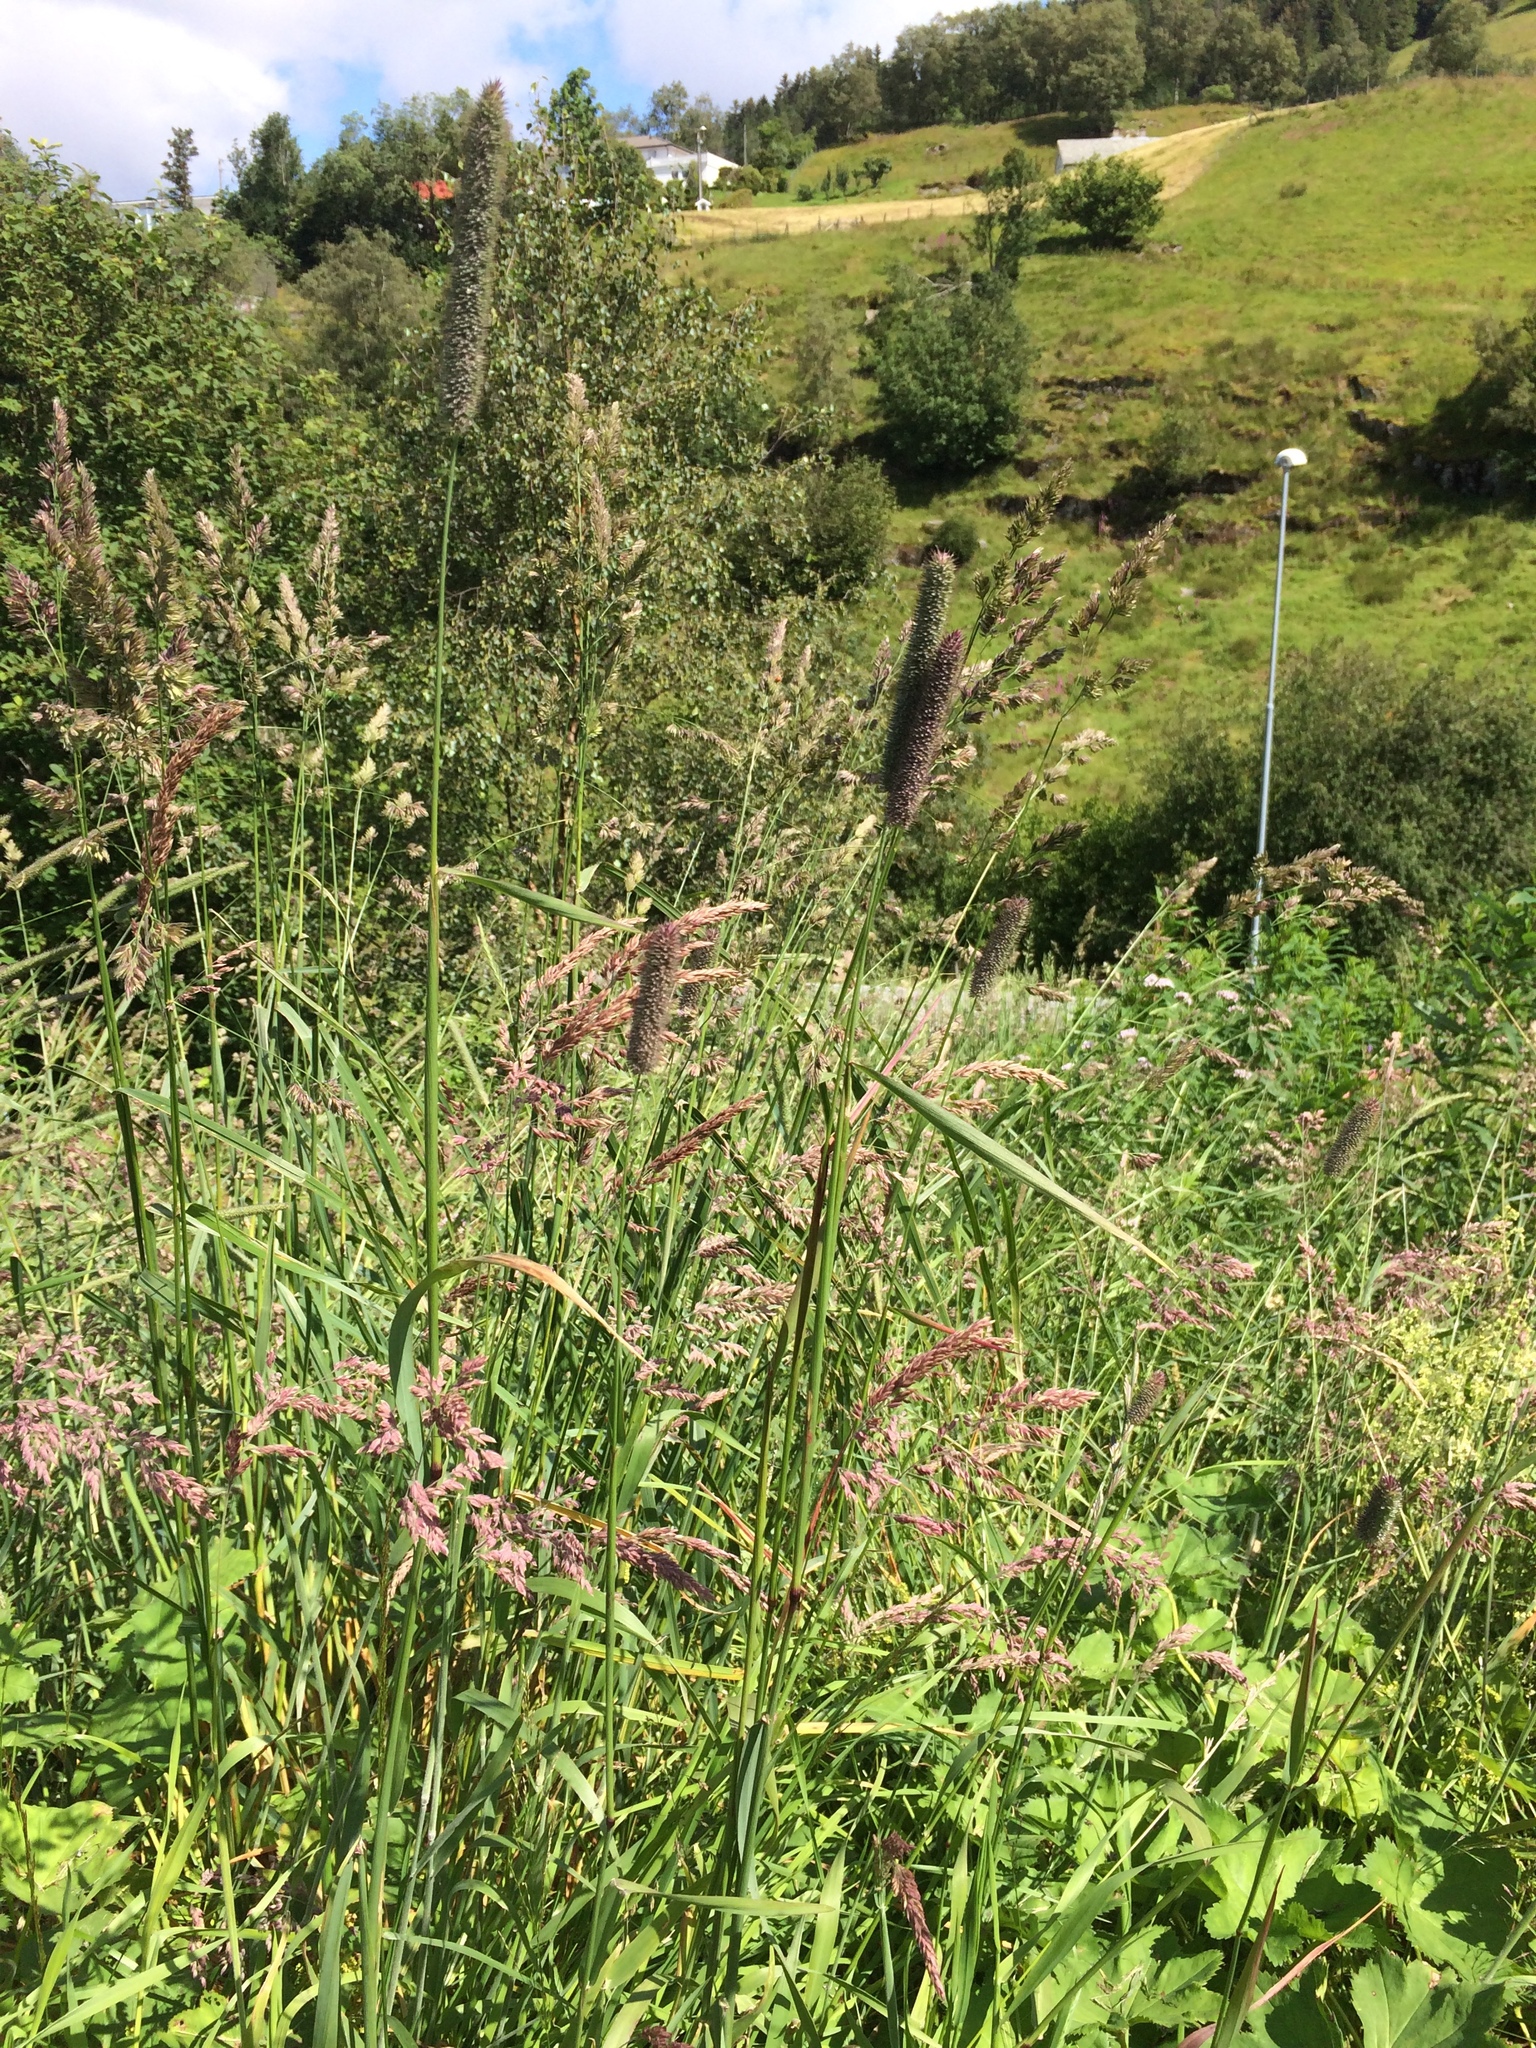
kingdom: Plantae
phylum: Tracheophyta
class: Liliopsida
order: Poales
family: Poaceae
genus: Phleum
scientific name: Phleum pratense
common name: Timothy grass
